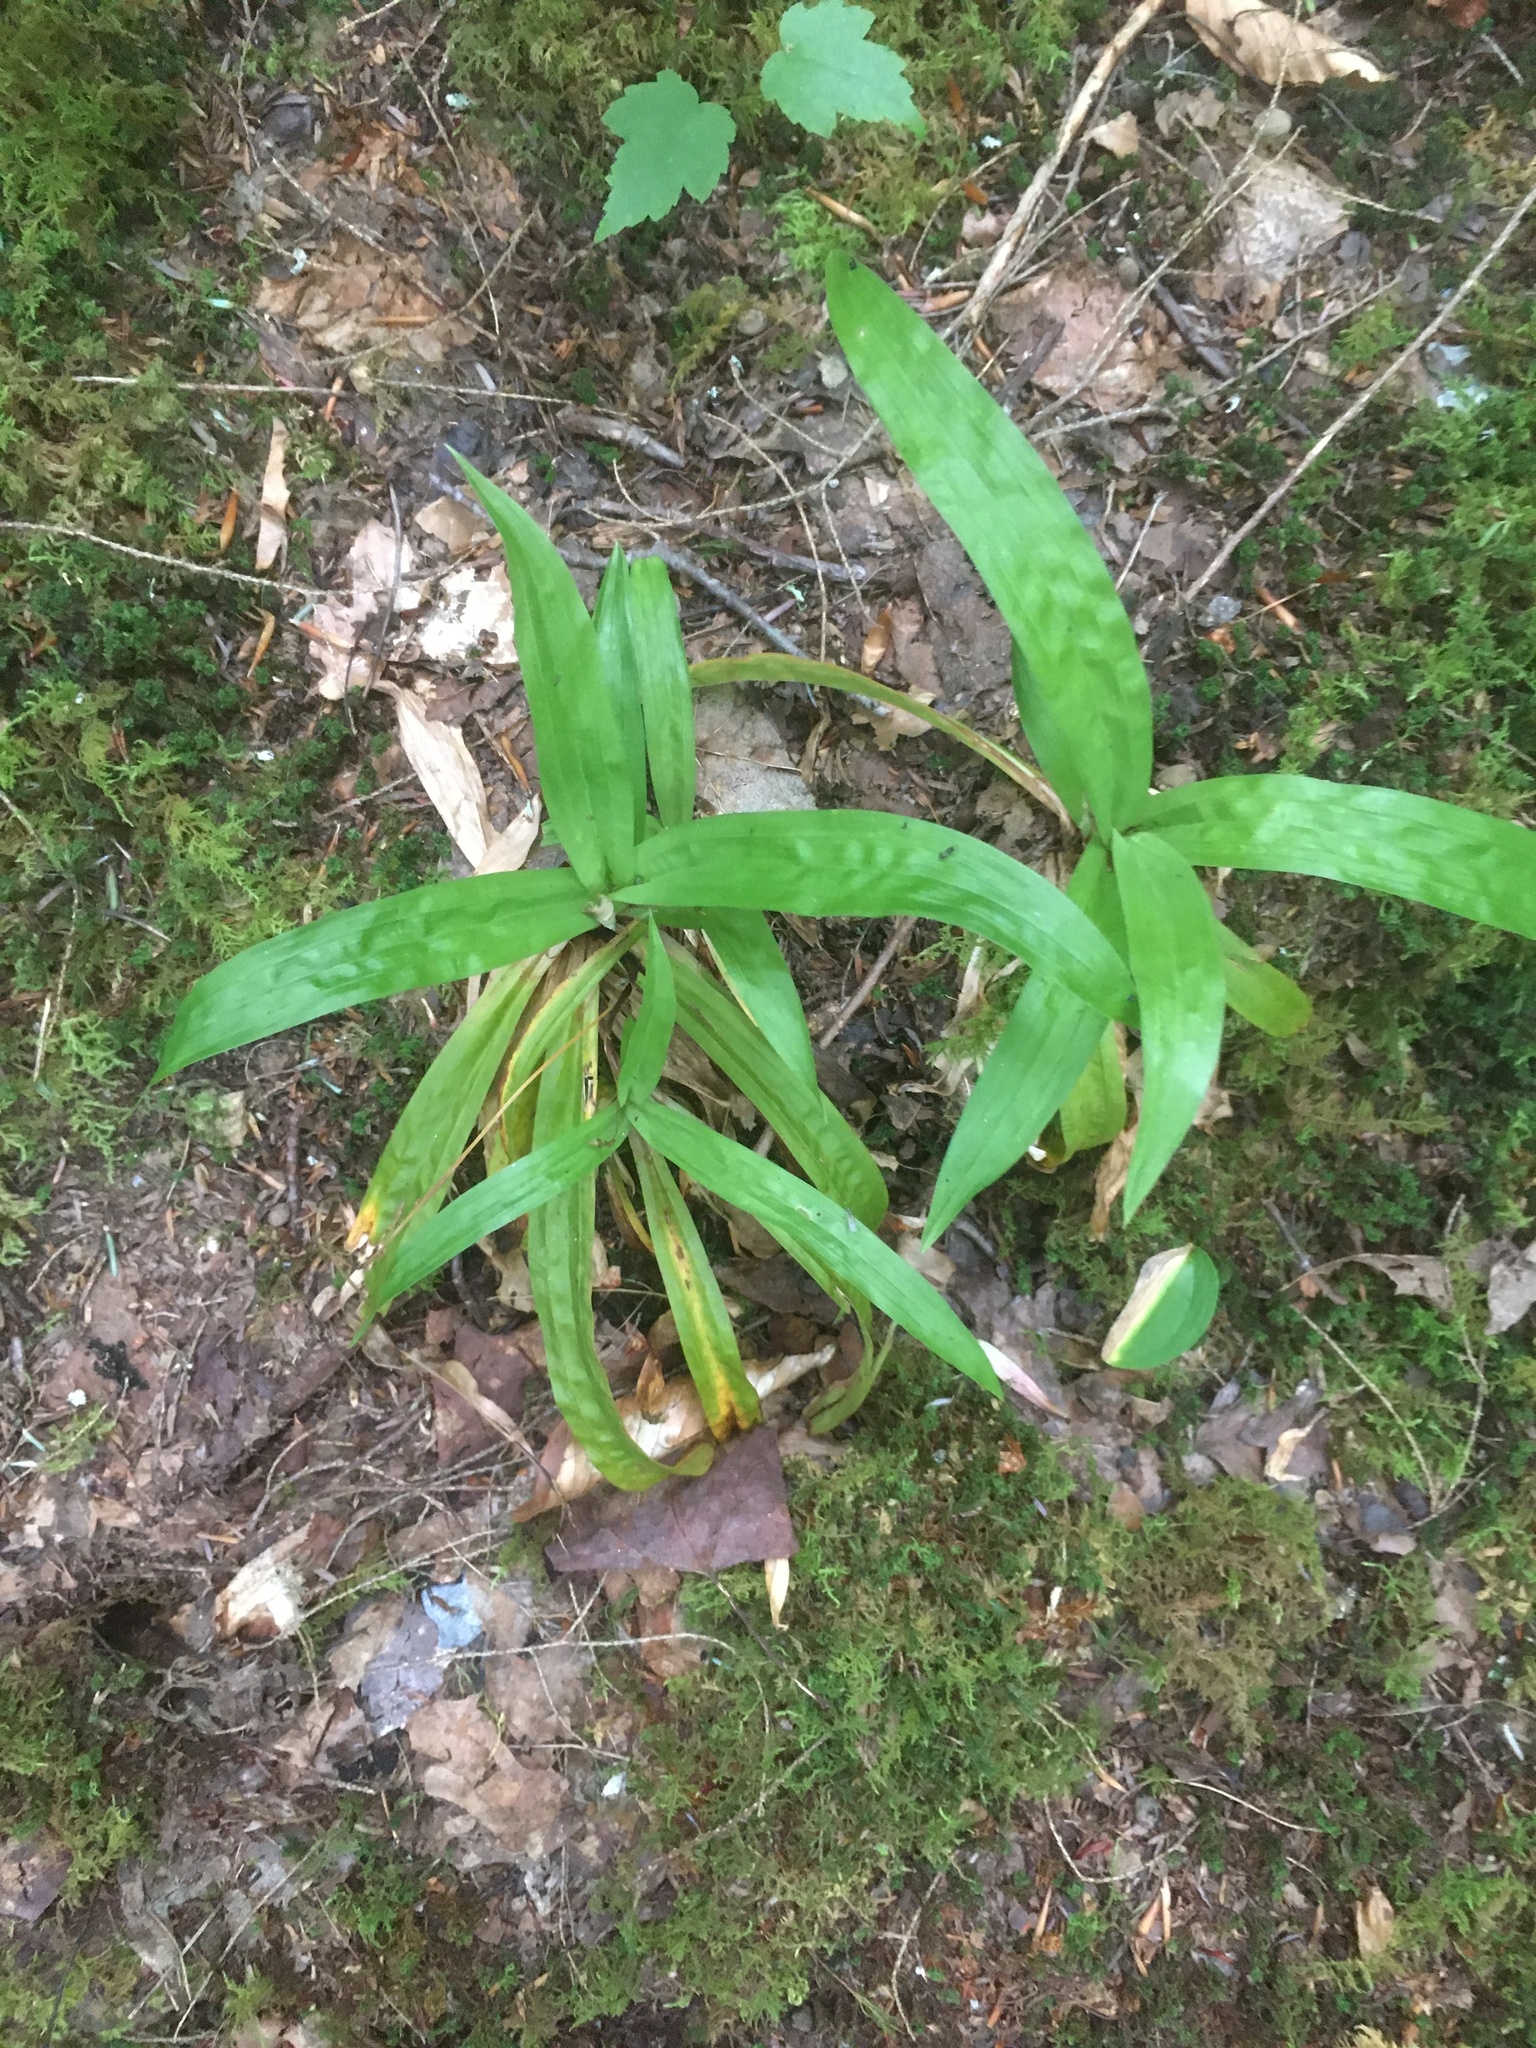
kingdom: Plantae
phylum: Tracheophyta
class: Liliopsida
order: Poales
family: Cyperaceae
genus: Carex
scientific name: Carex plantaginea
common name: Plantain-leaved sedge
